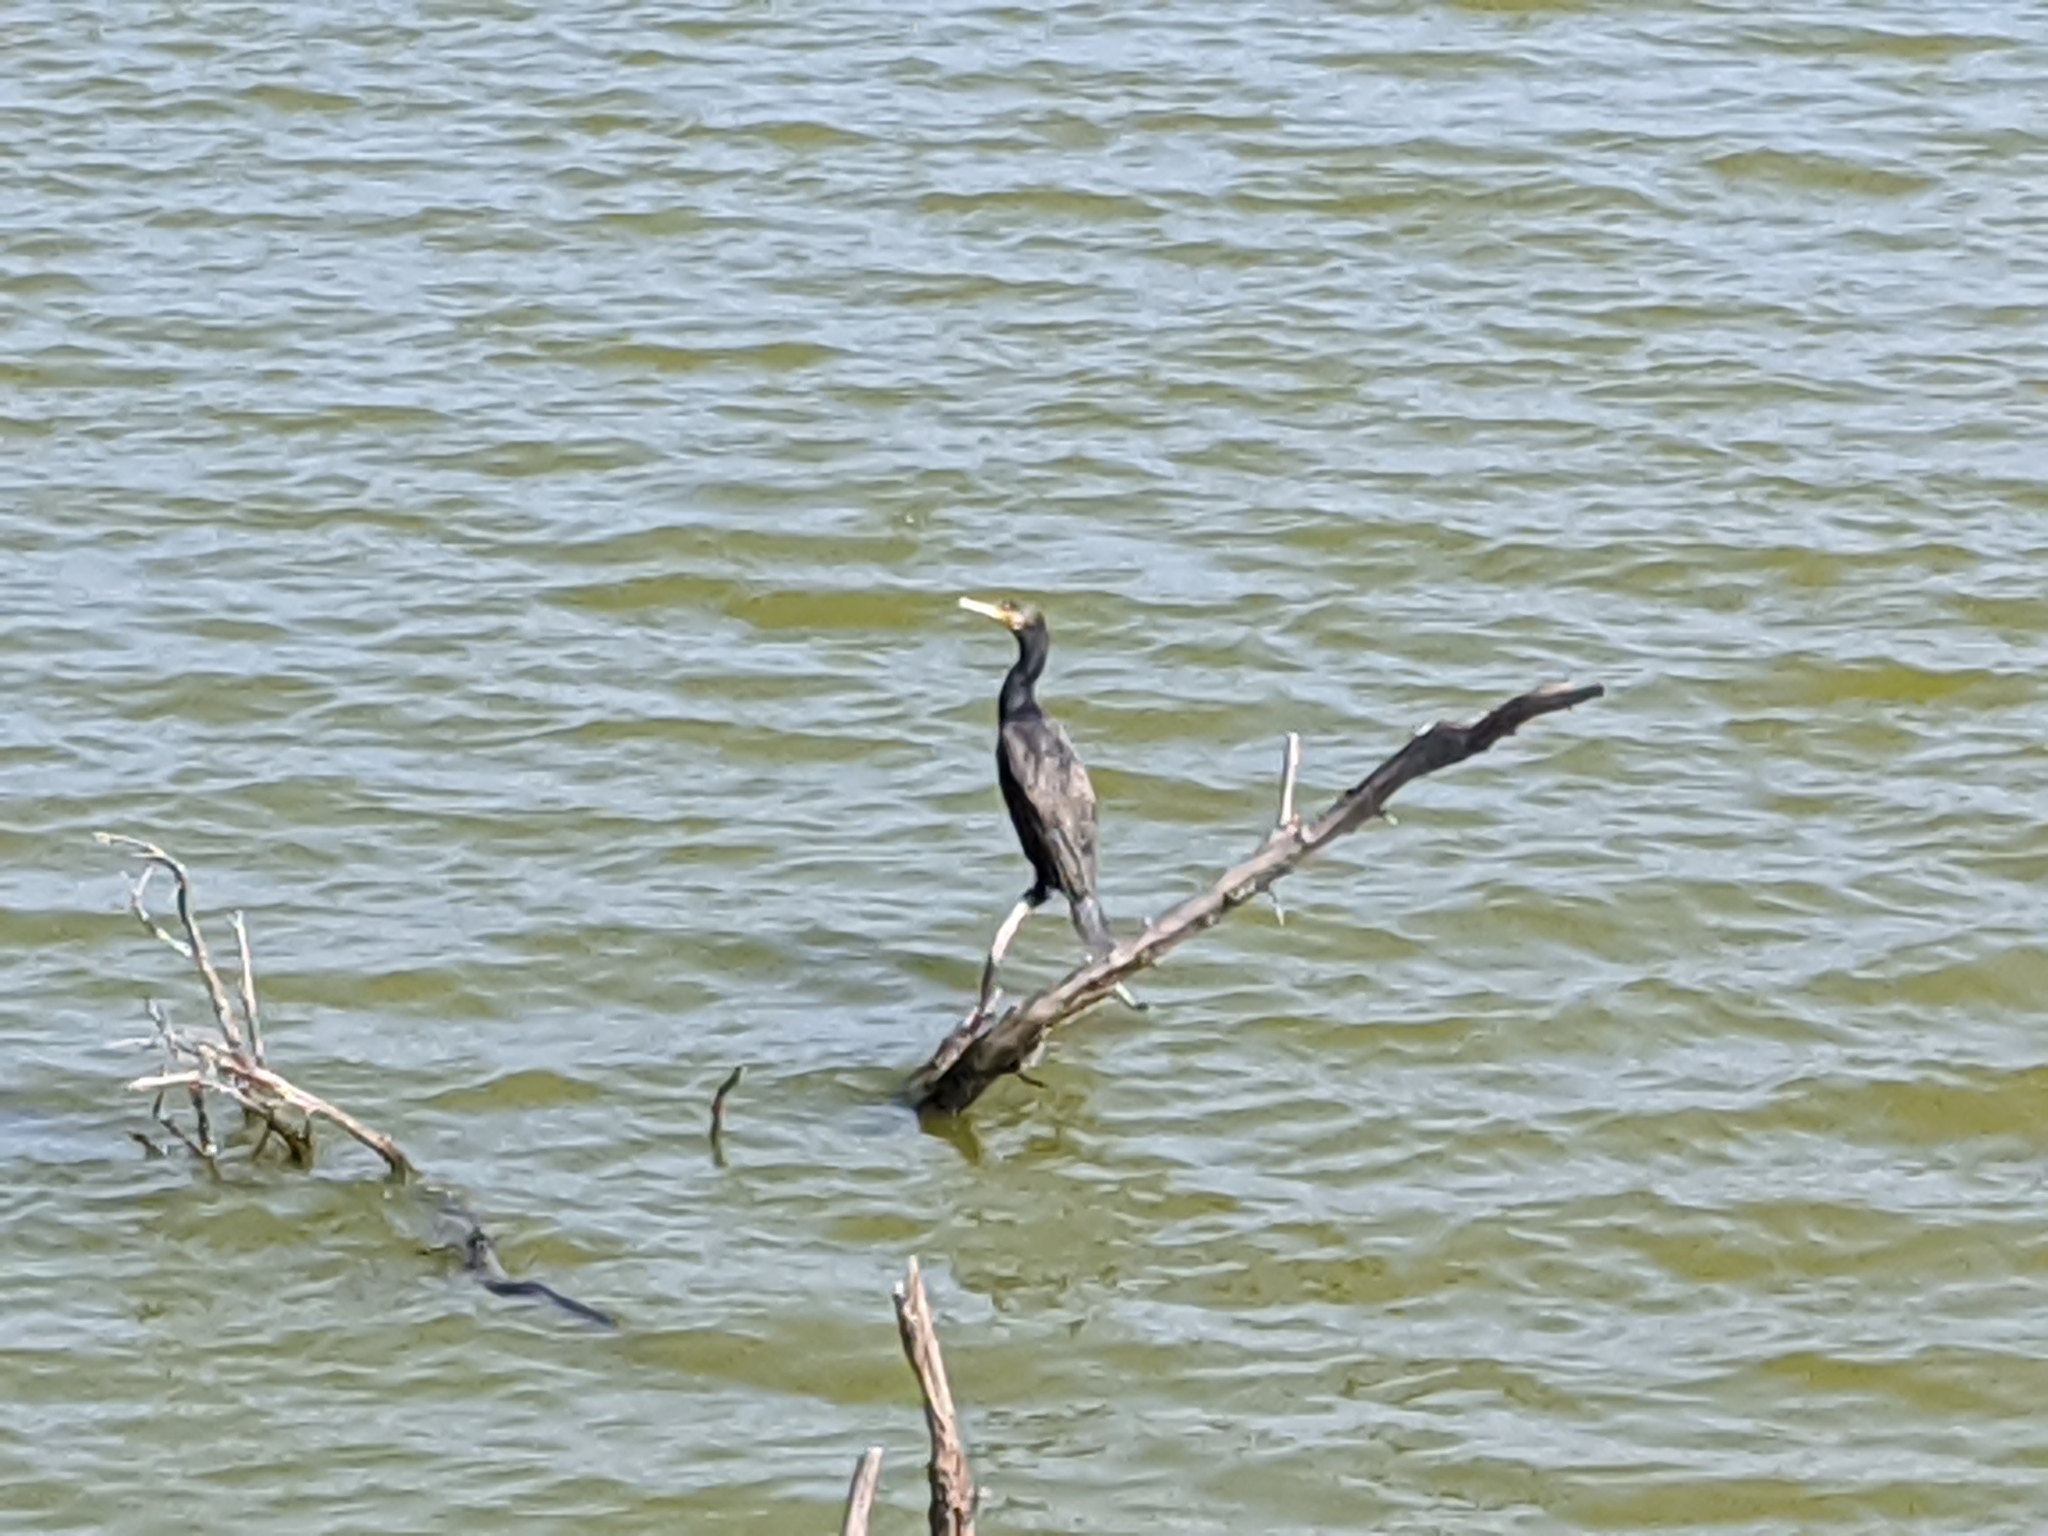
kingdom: Animalia
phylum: Chordata
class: Aves
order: Suliformes
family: Phalacrocoracidae
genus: Phalacrocorax
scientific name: Phalacrocorax carbo
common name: Great cormorant
